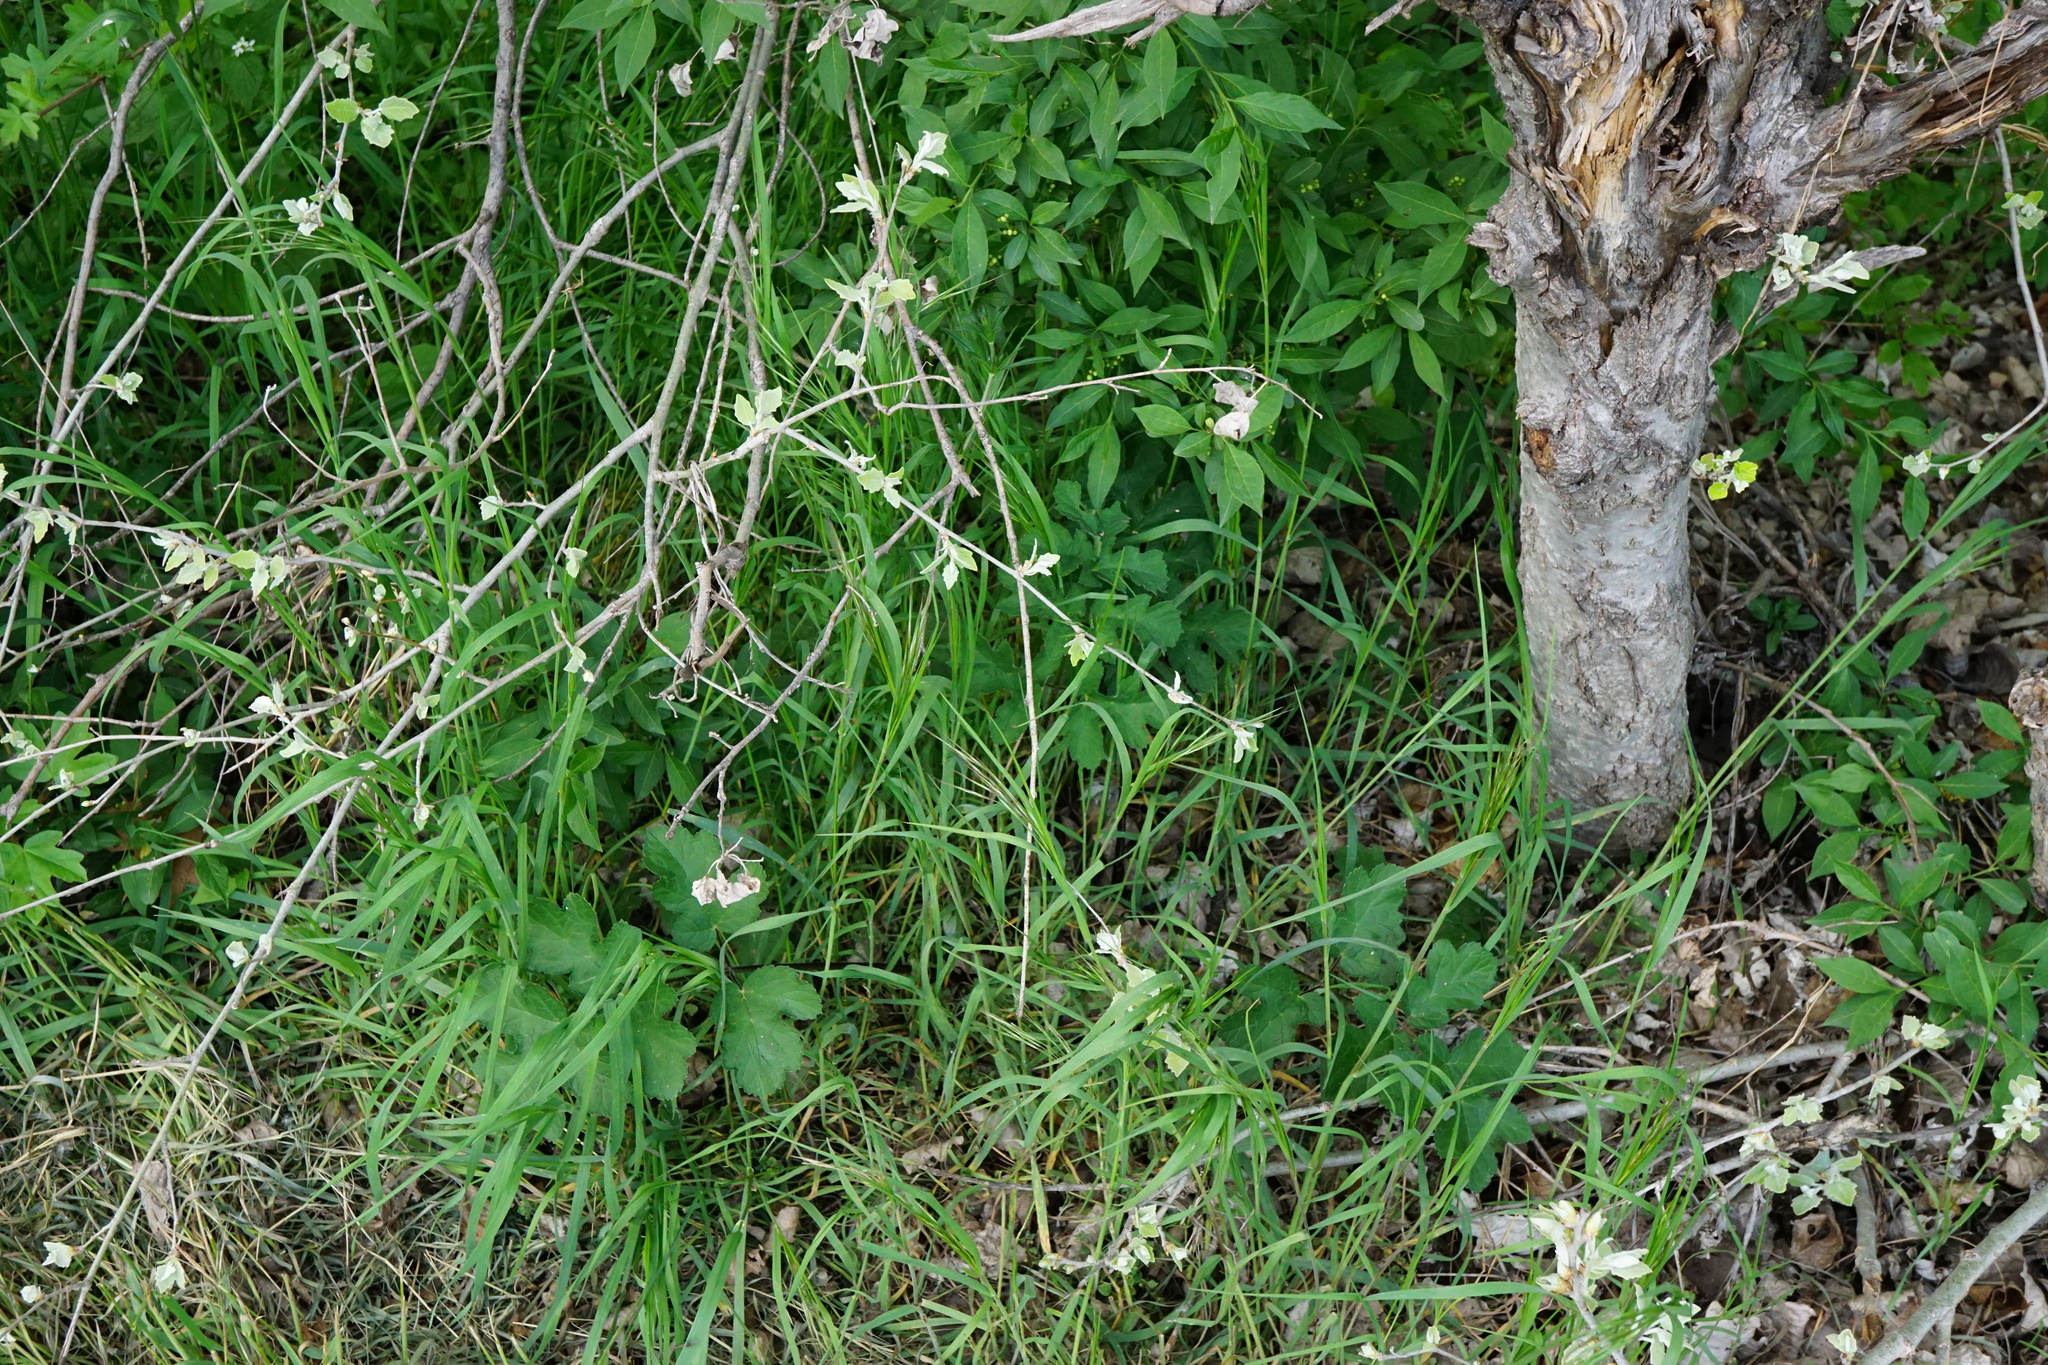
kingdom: Plantae
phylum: Tracheophyta
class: Magnoliopsida
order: Apiales
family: Apiaceae
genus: Heracleum
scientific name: Heracleum sphondylium
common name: Hogweed
